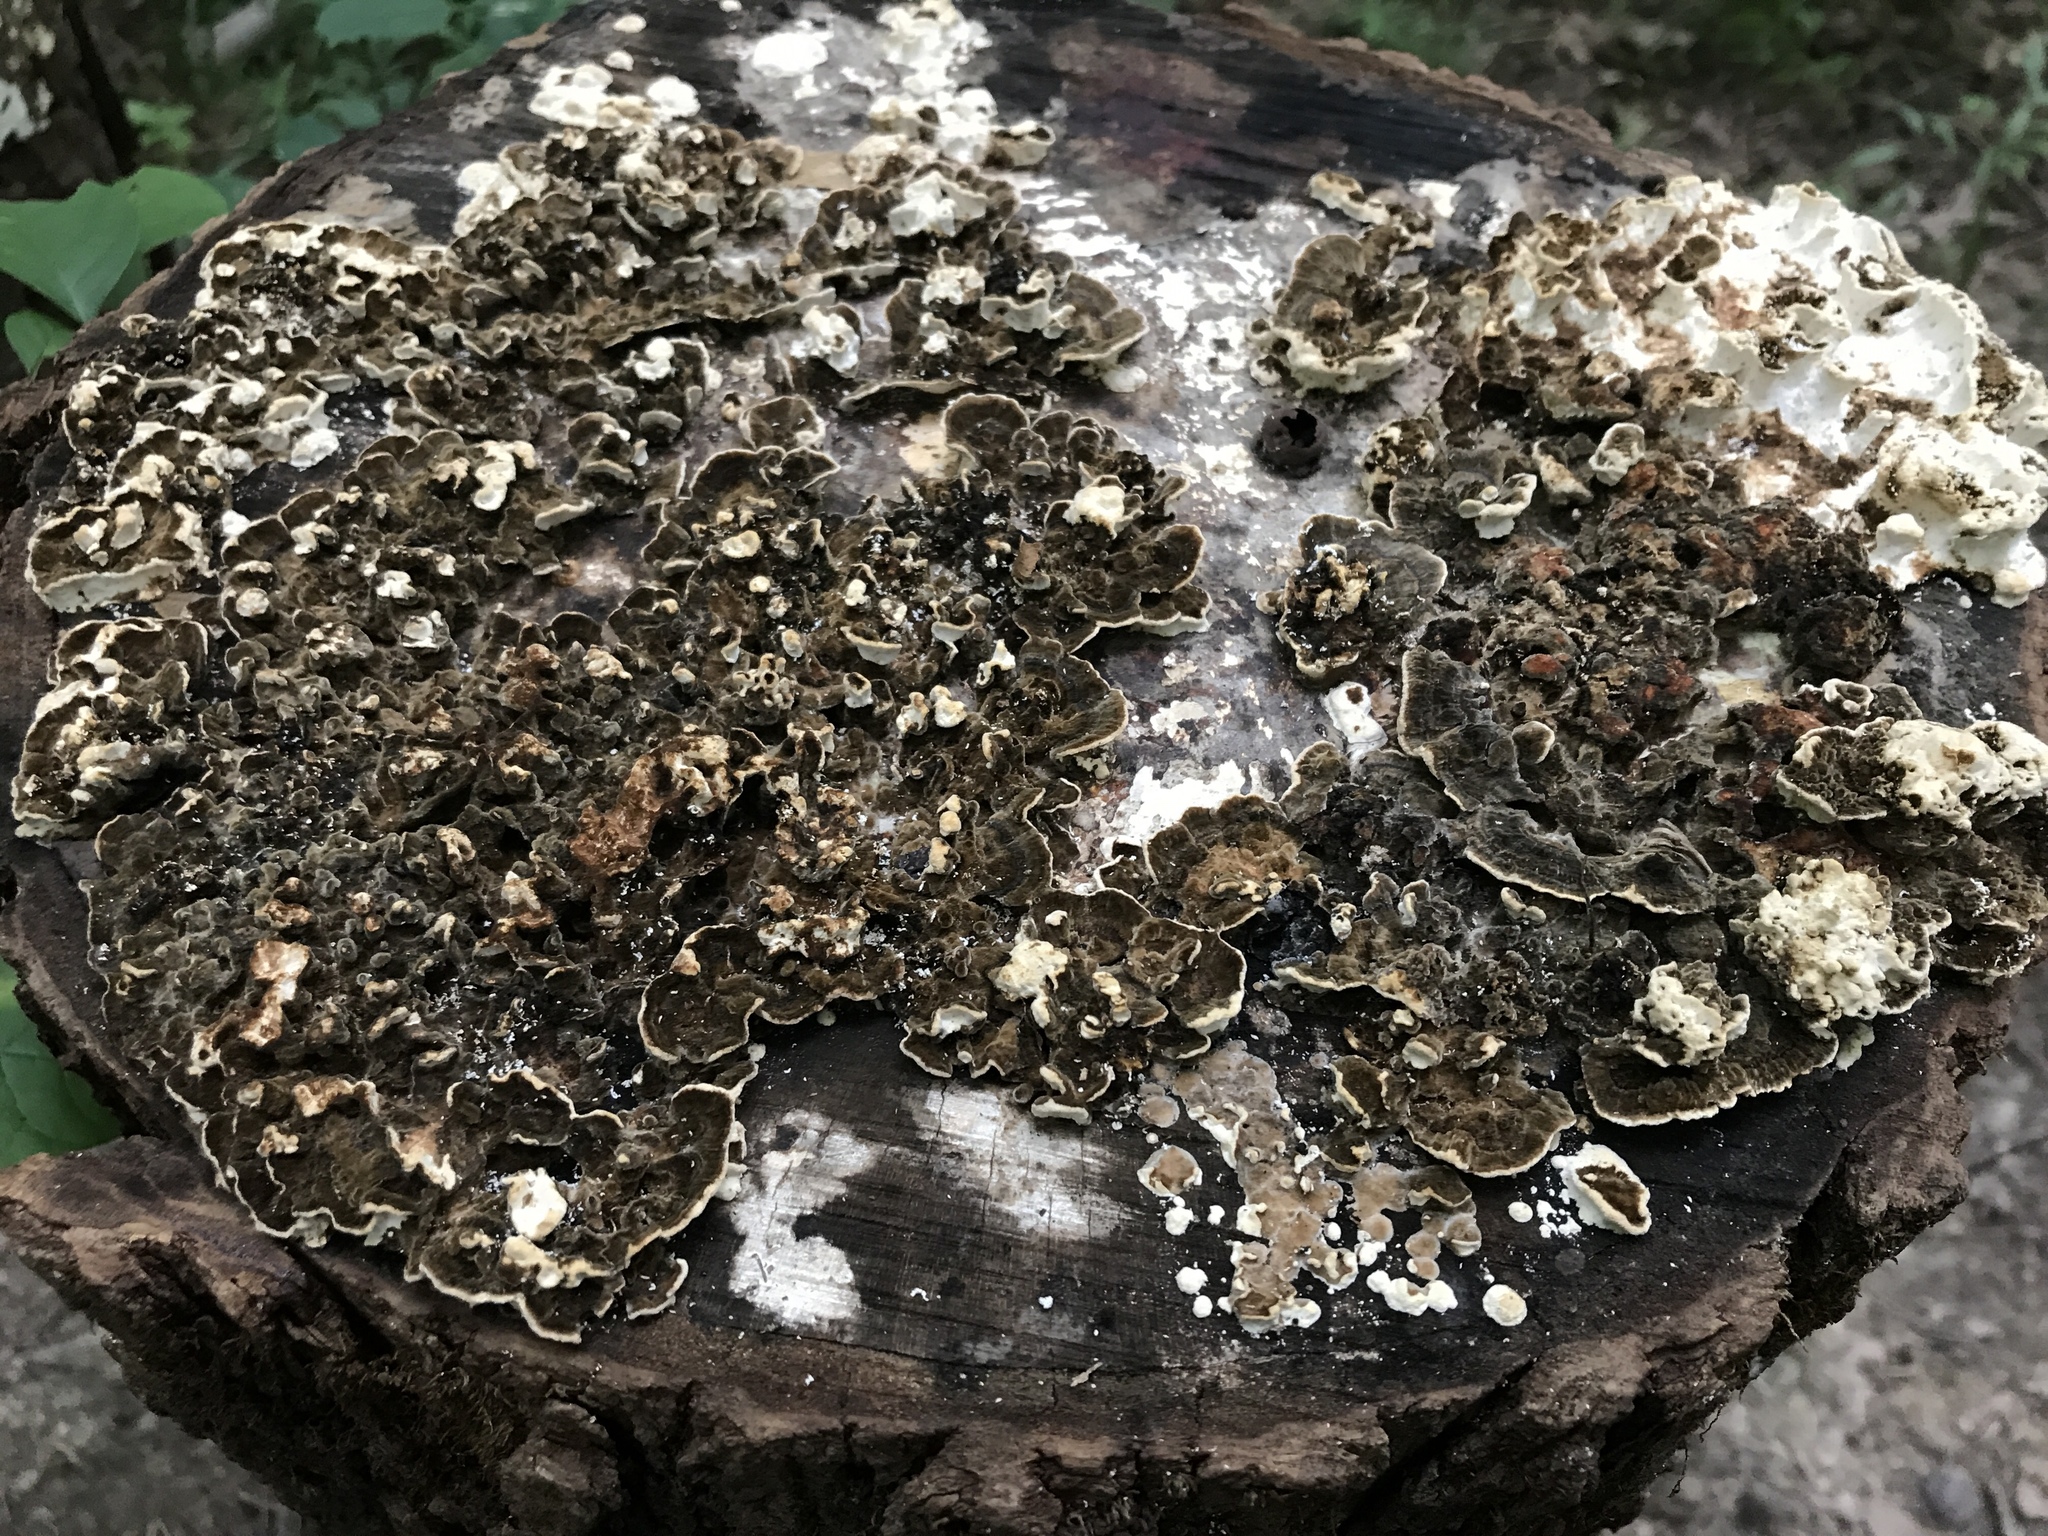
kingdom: Fungi
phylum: Basidiomycota
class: Agaricomycetes
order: Polyporales
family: Polyporaceae
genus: Trametes
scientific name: Trametes versicolor
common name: Turkeytail
